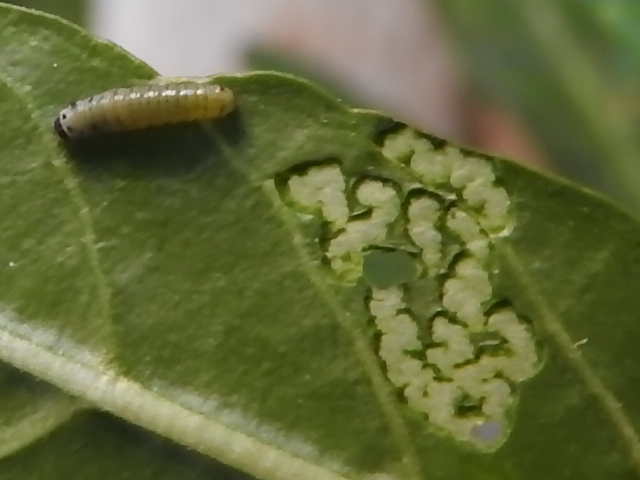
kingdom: Animalia
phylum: Arthropoda
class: Insecta
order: Lepidoptera
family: Nymphalidae
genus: Danaus
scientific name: Danaus plexippus
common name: Monarch
